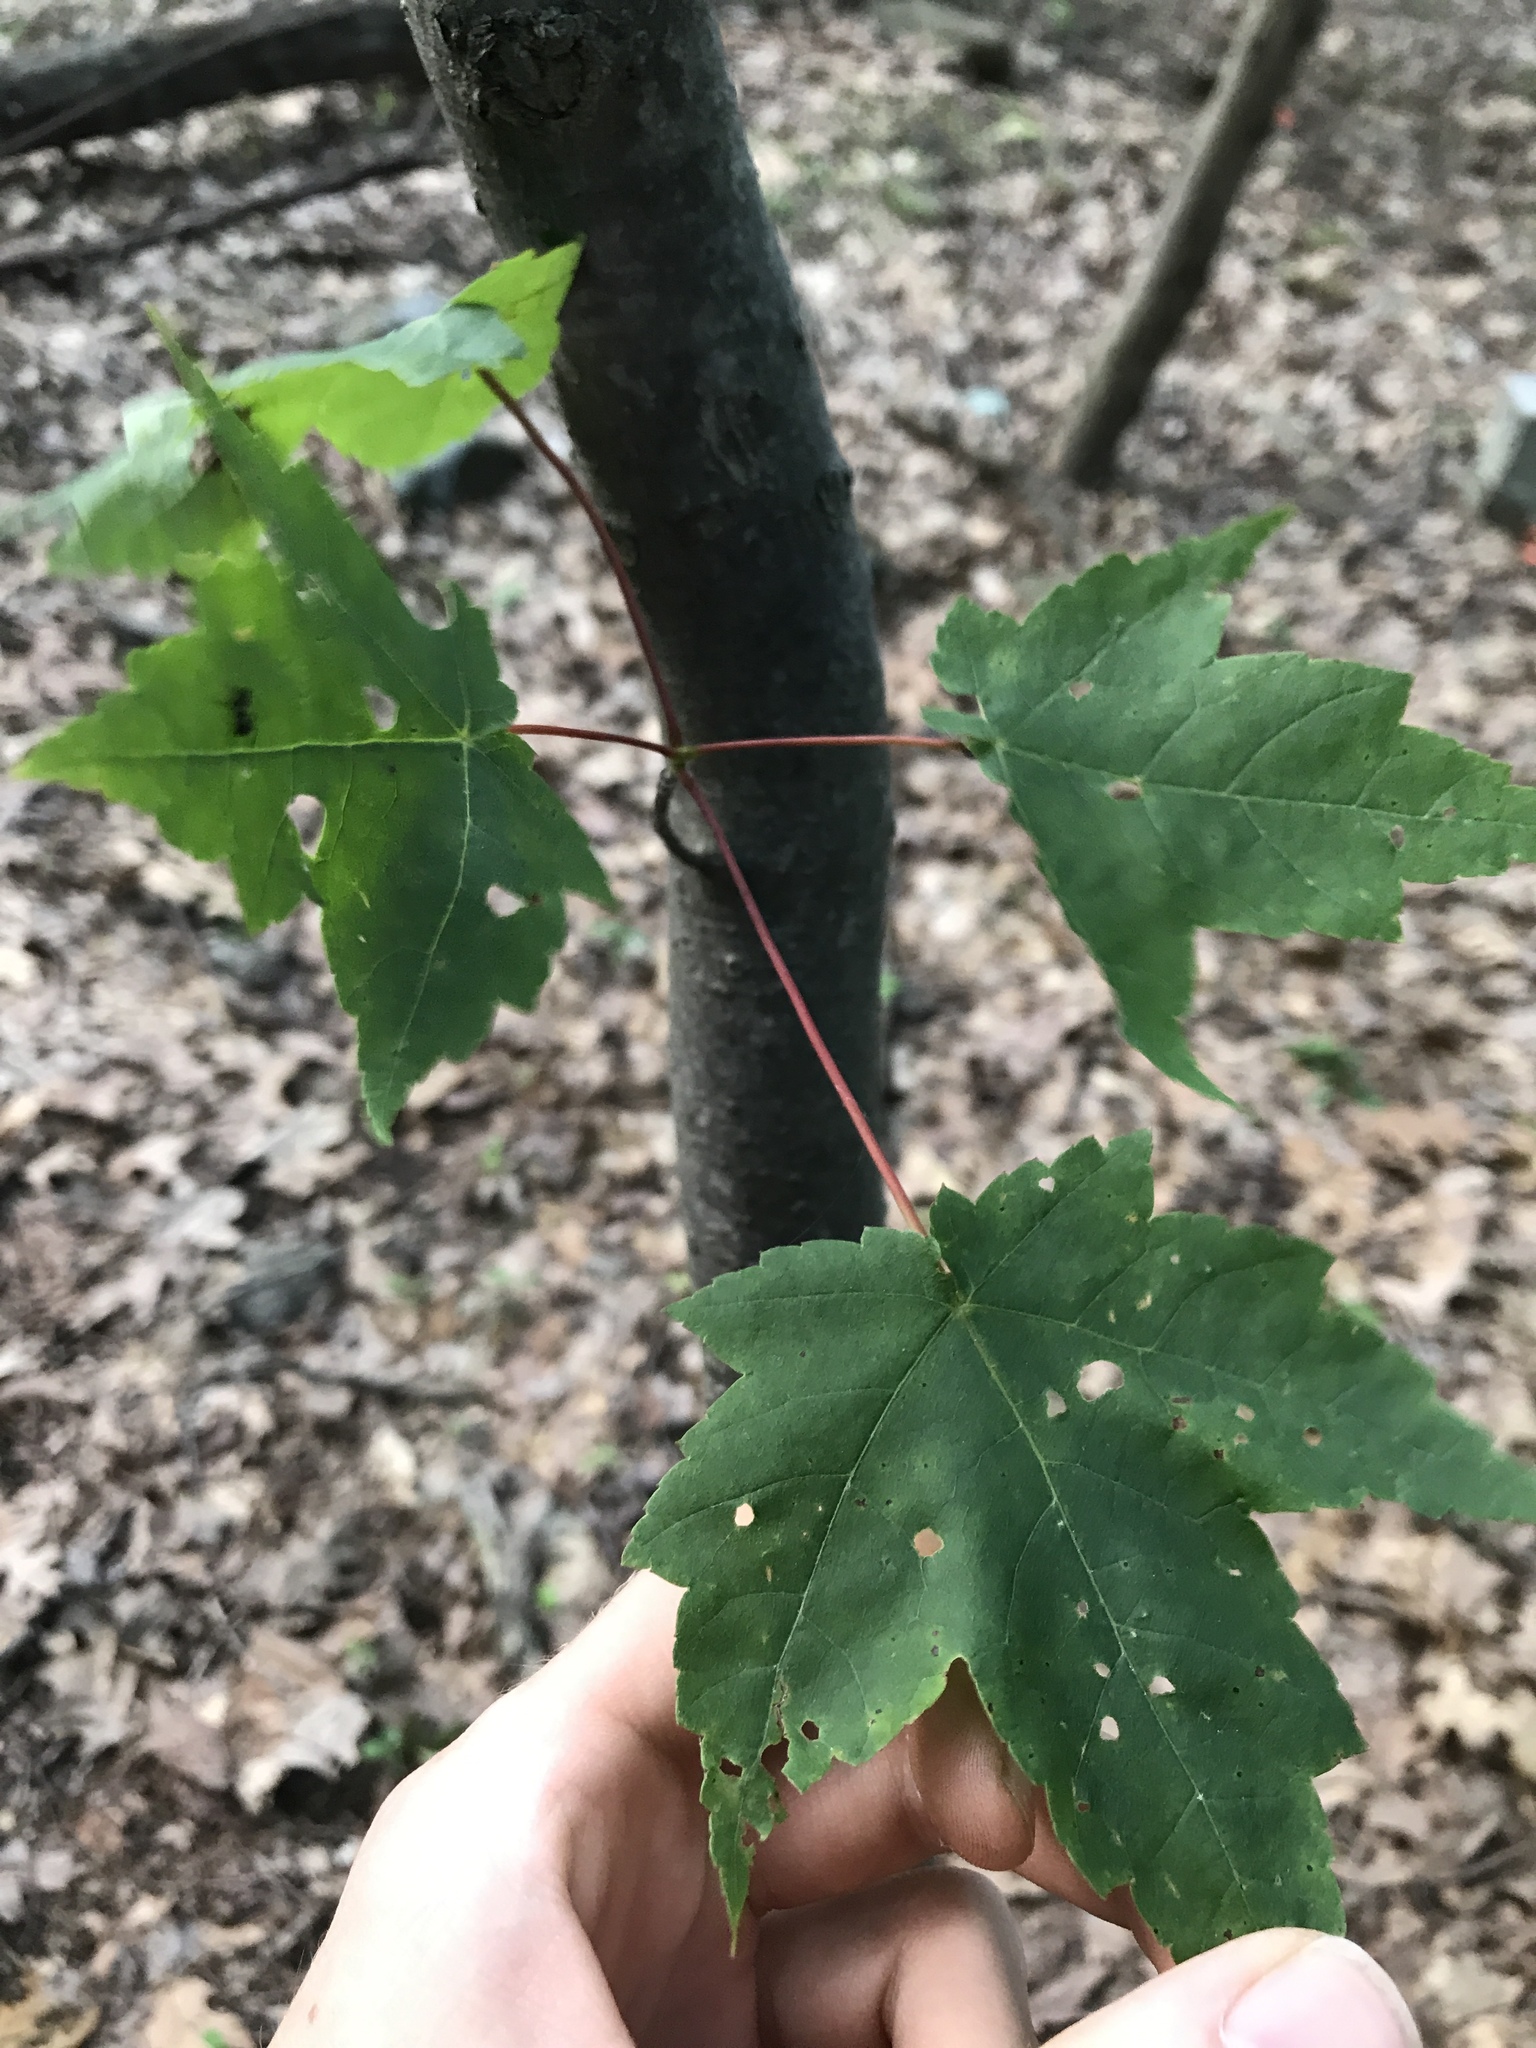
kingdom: Plantae
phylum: Tracheophyta
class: Magnoliopsida
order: Sapindales
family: Sapindaceae
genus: Acer
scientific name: Acer rubrum
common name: Red maple
